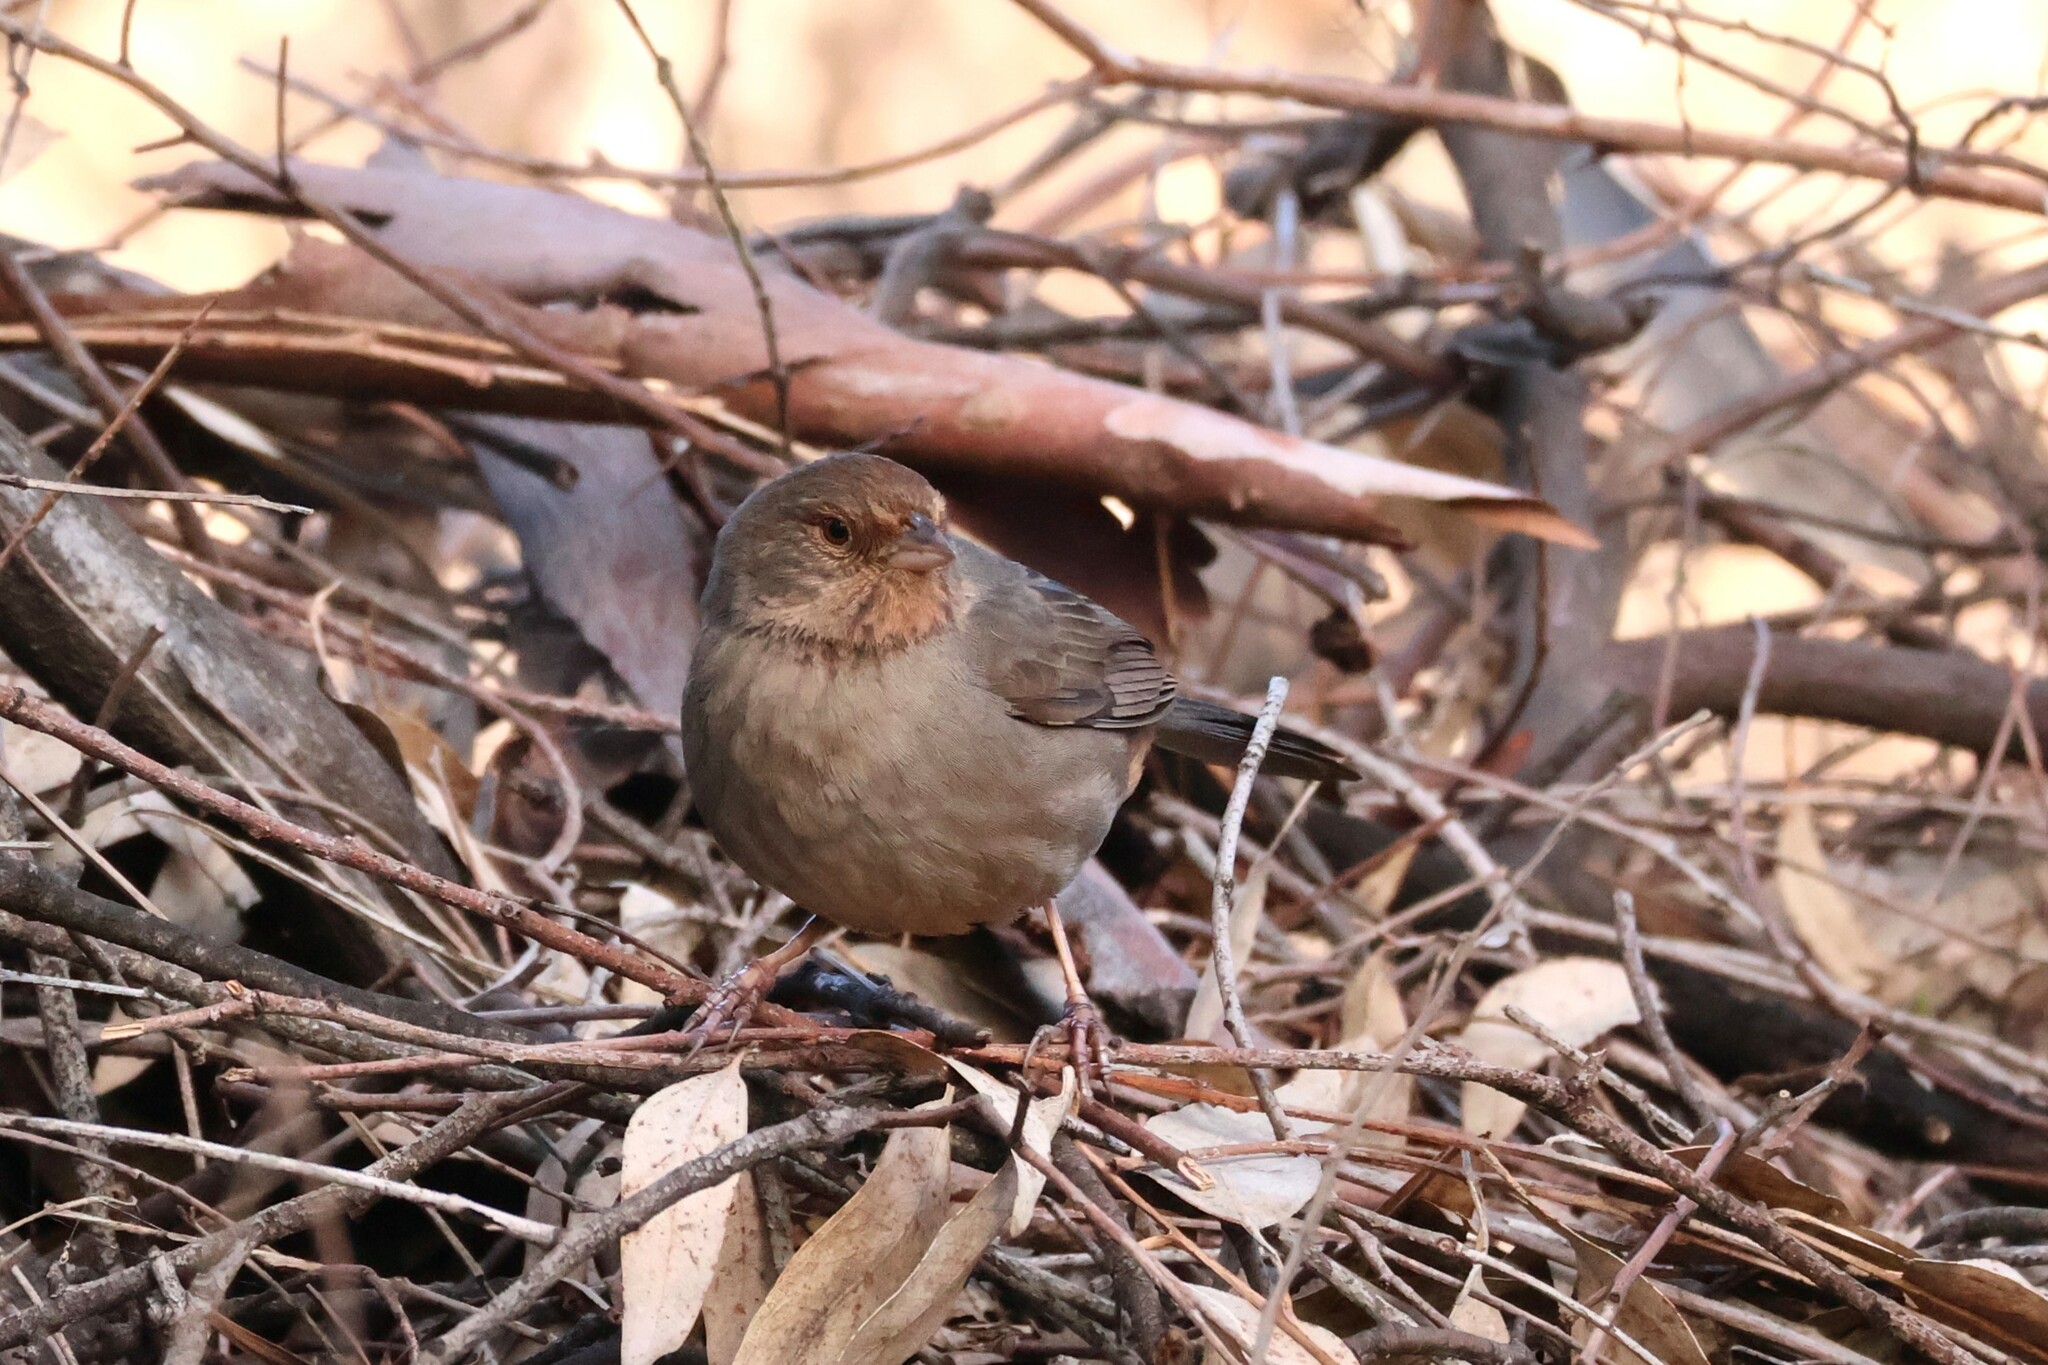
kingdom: Animalia
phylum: Chordata
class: Aves
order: Passeriformes
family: Passerellidae
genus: Melozone
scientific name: Melozone crissalis
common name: California towhee
